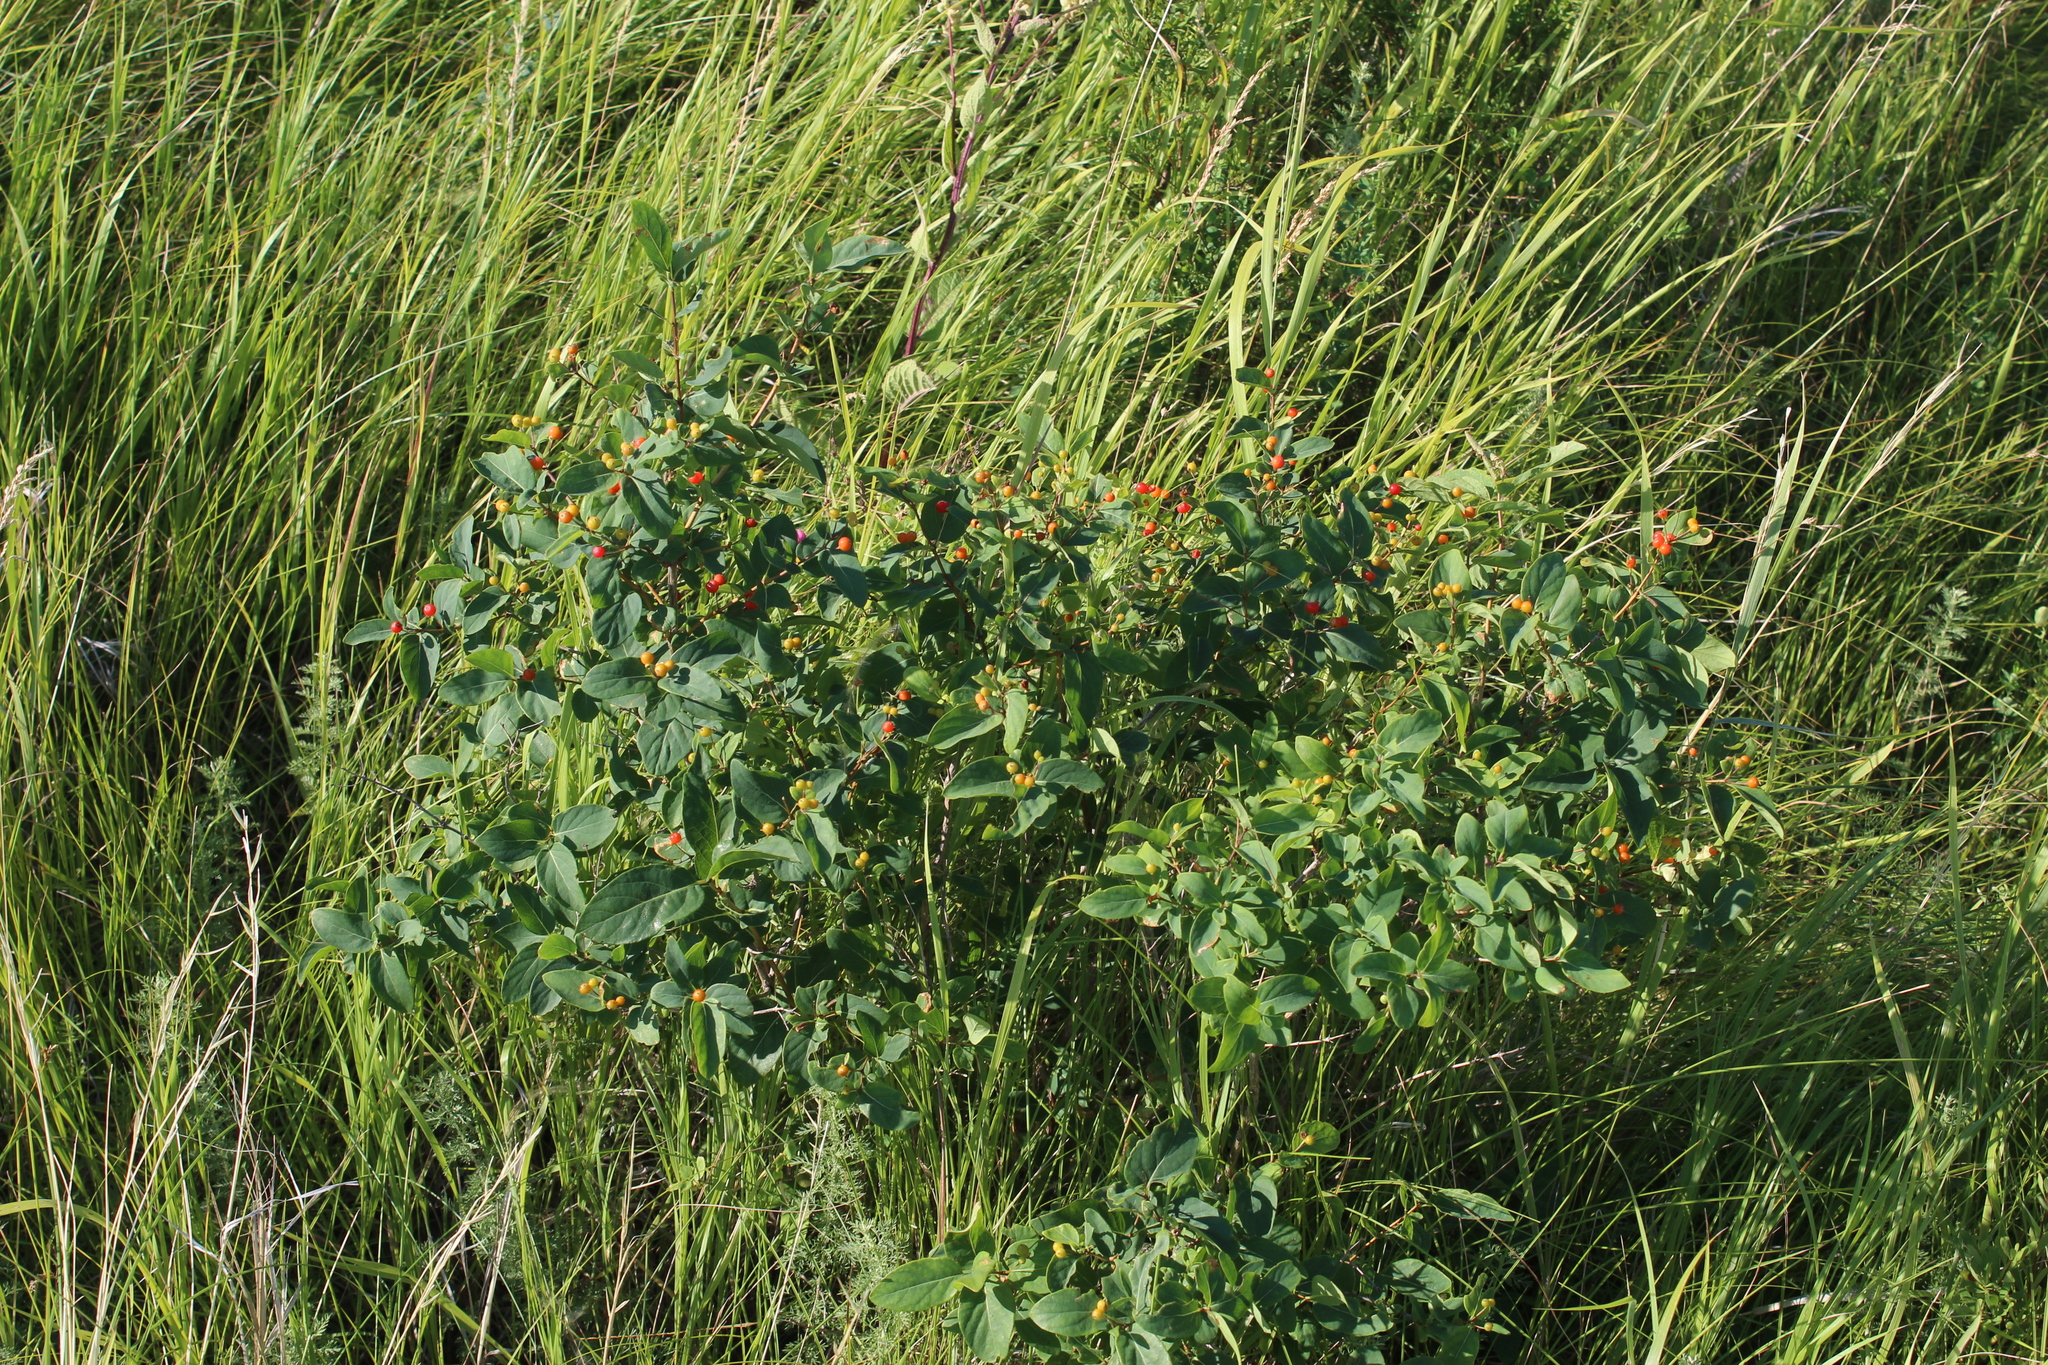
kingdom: Plantae
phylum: Tracheophyta
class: Magnoliopsida
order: Dipsacales
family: Caprifoliaceae
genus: Lonicera
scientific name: Lonicera tatarica
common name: Tatarian honeysuckle
